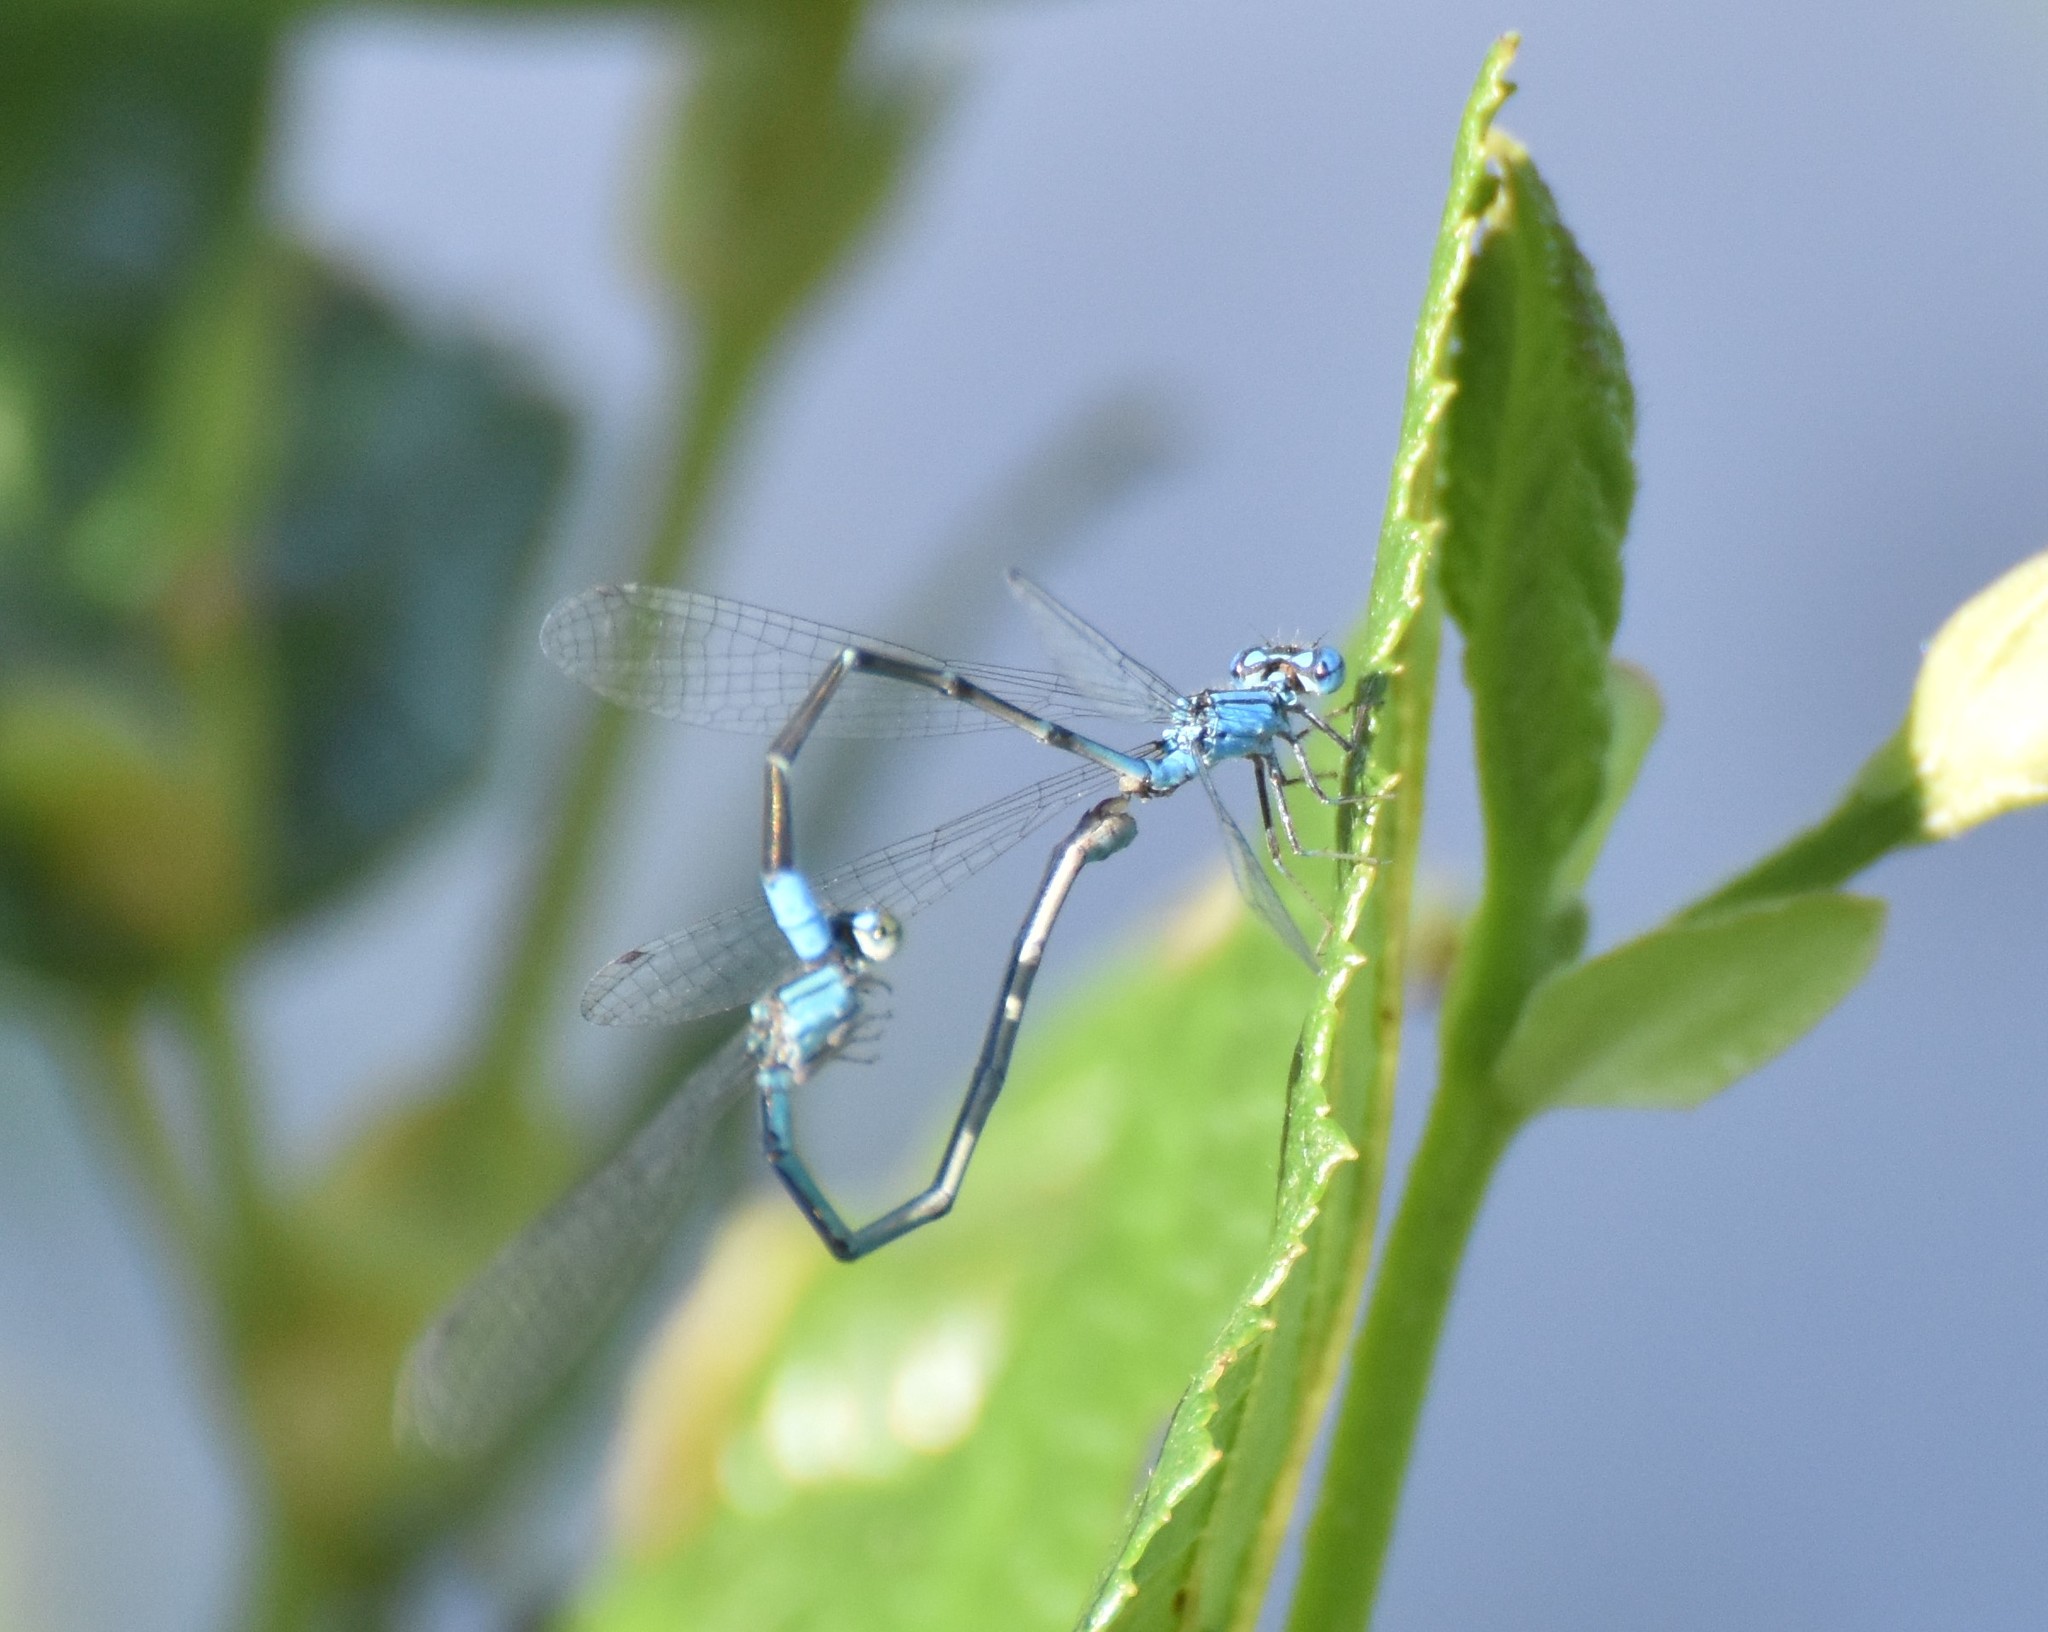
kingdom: Animalia
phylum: Arthropoda
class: Insecta
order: Odonata
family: Coenagrionidae
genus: Enallagma
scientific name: Enallagma traviatum
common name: Slender bluet
